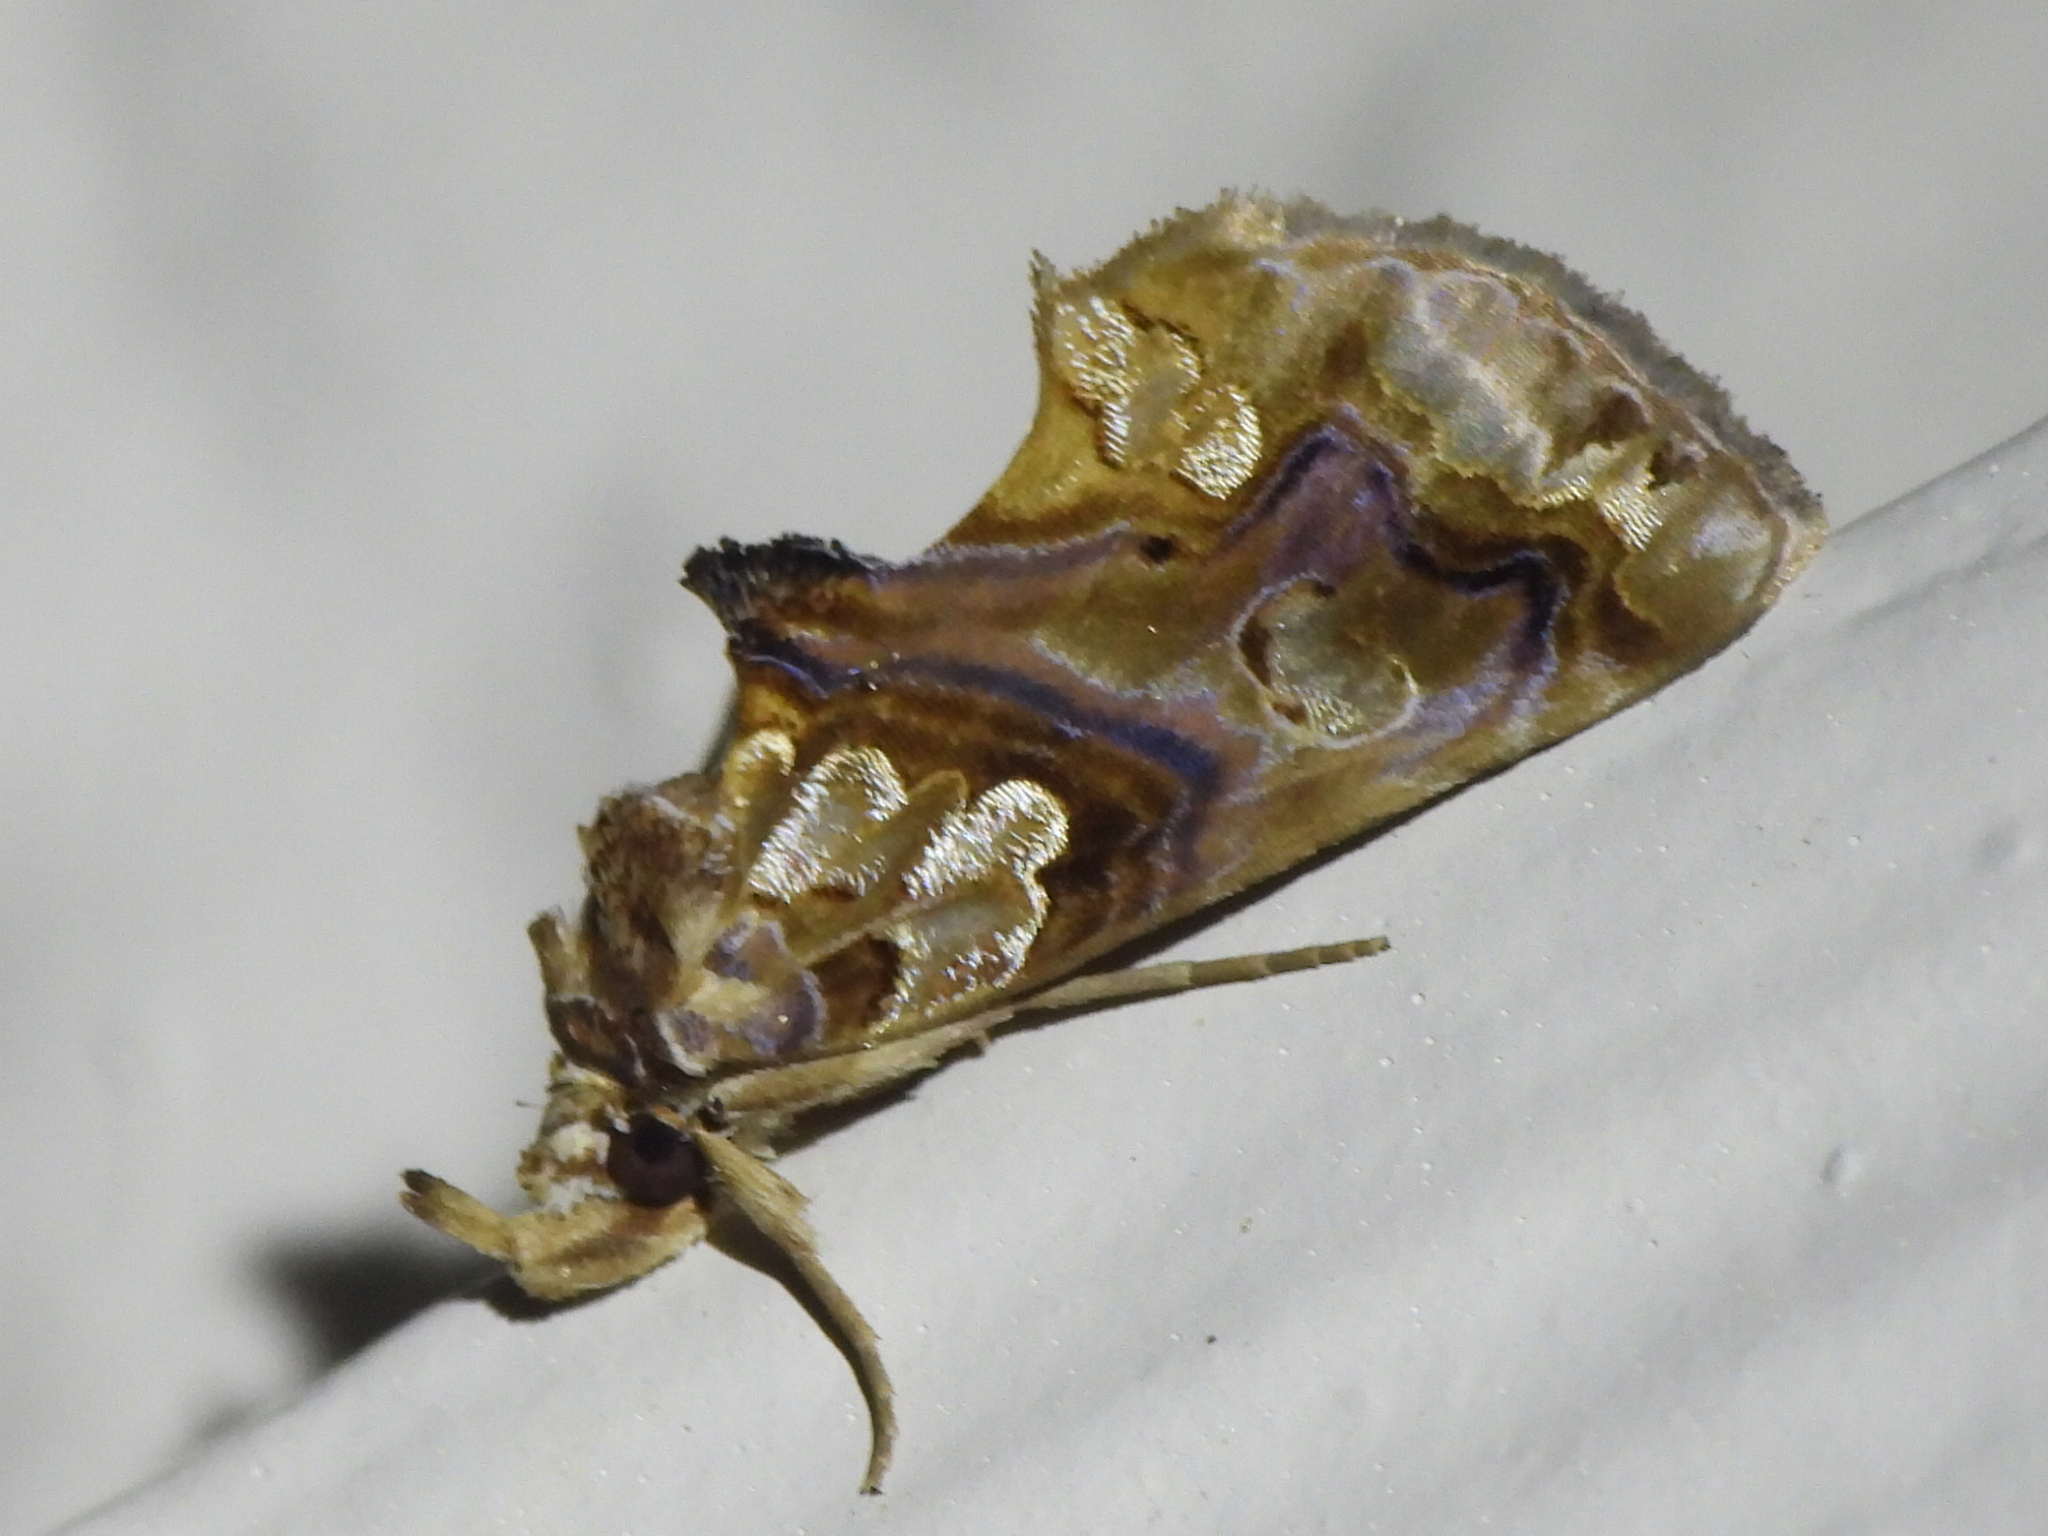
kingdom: Animalia
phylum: Arthropoda
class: Insecta
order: Lepidoptera
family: Erebidae
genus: Plusiodonta
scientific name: Plusiodonta compressipalpis
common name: Moonseed moth
